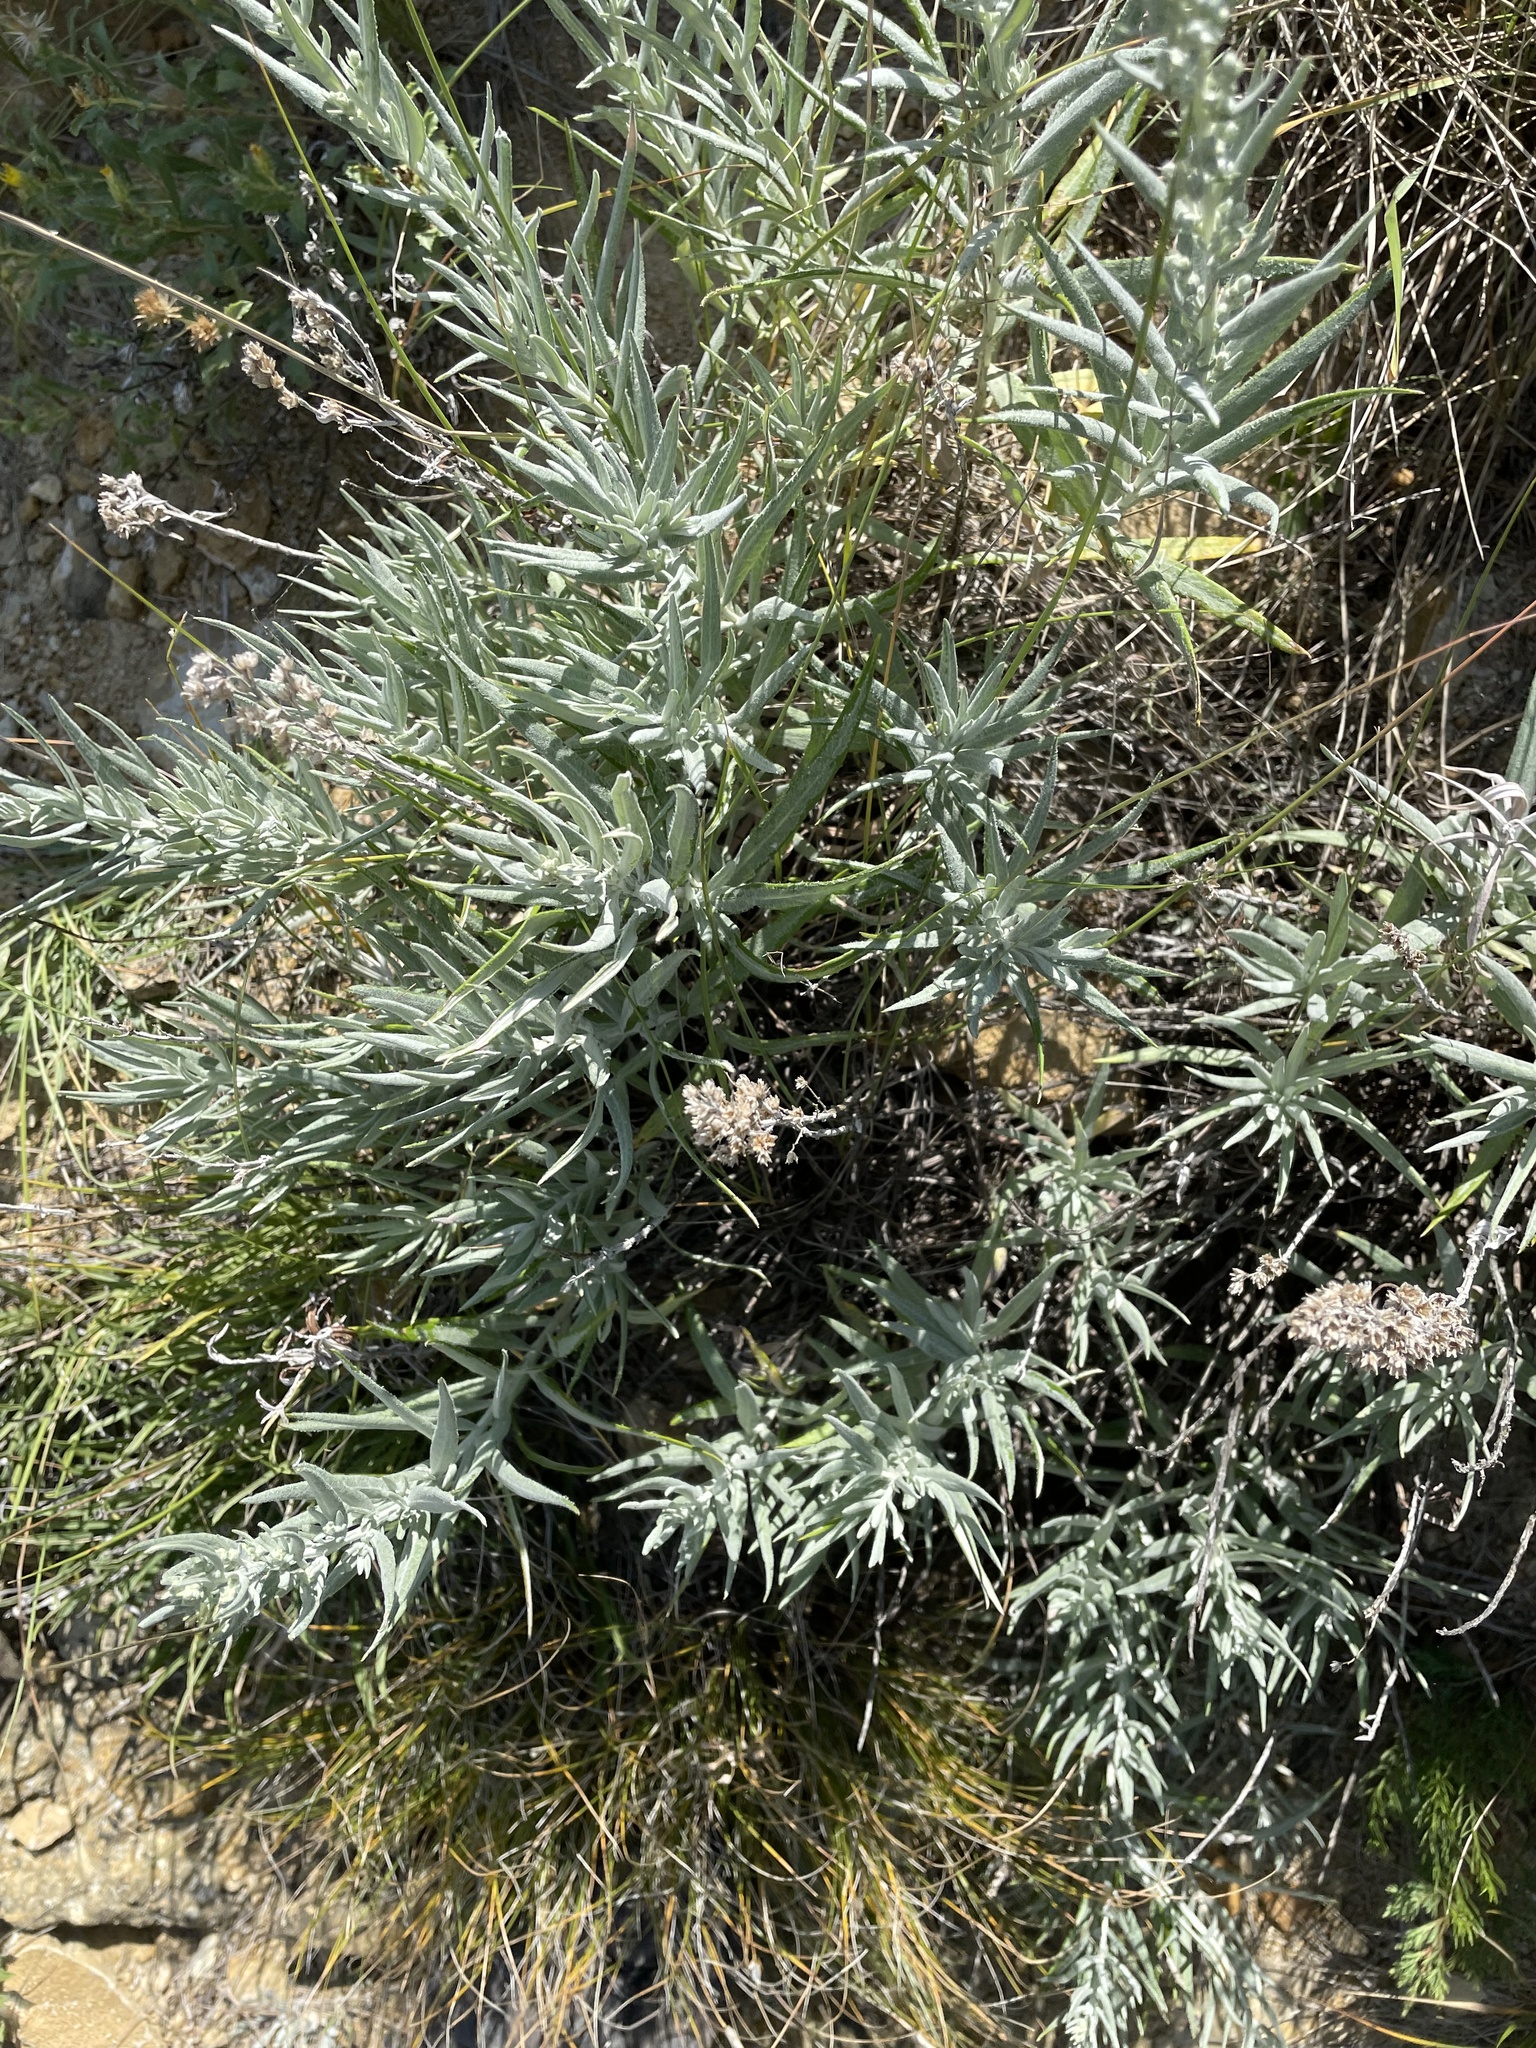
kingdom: Plantae
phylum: Tracheophyta
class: Magnoliopsida
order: Asterales
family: Asteraceae
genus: Artemisia
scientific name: Artemisia longifolia
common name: Long-leaved mugwort
